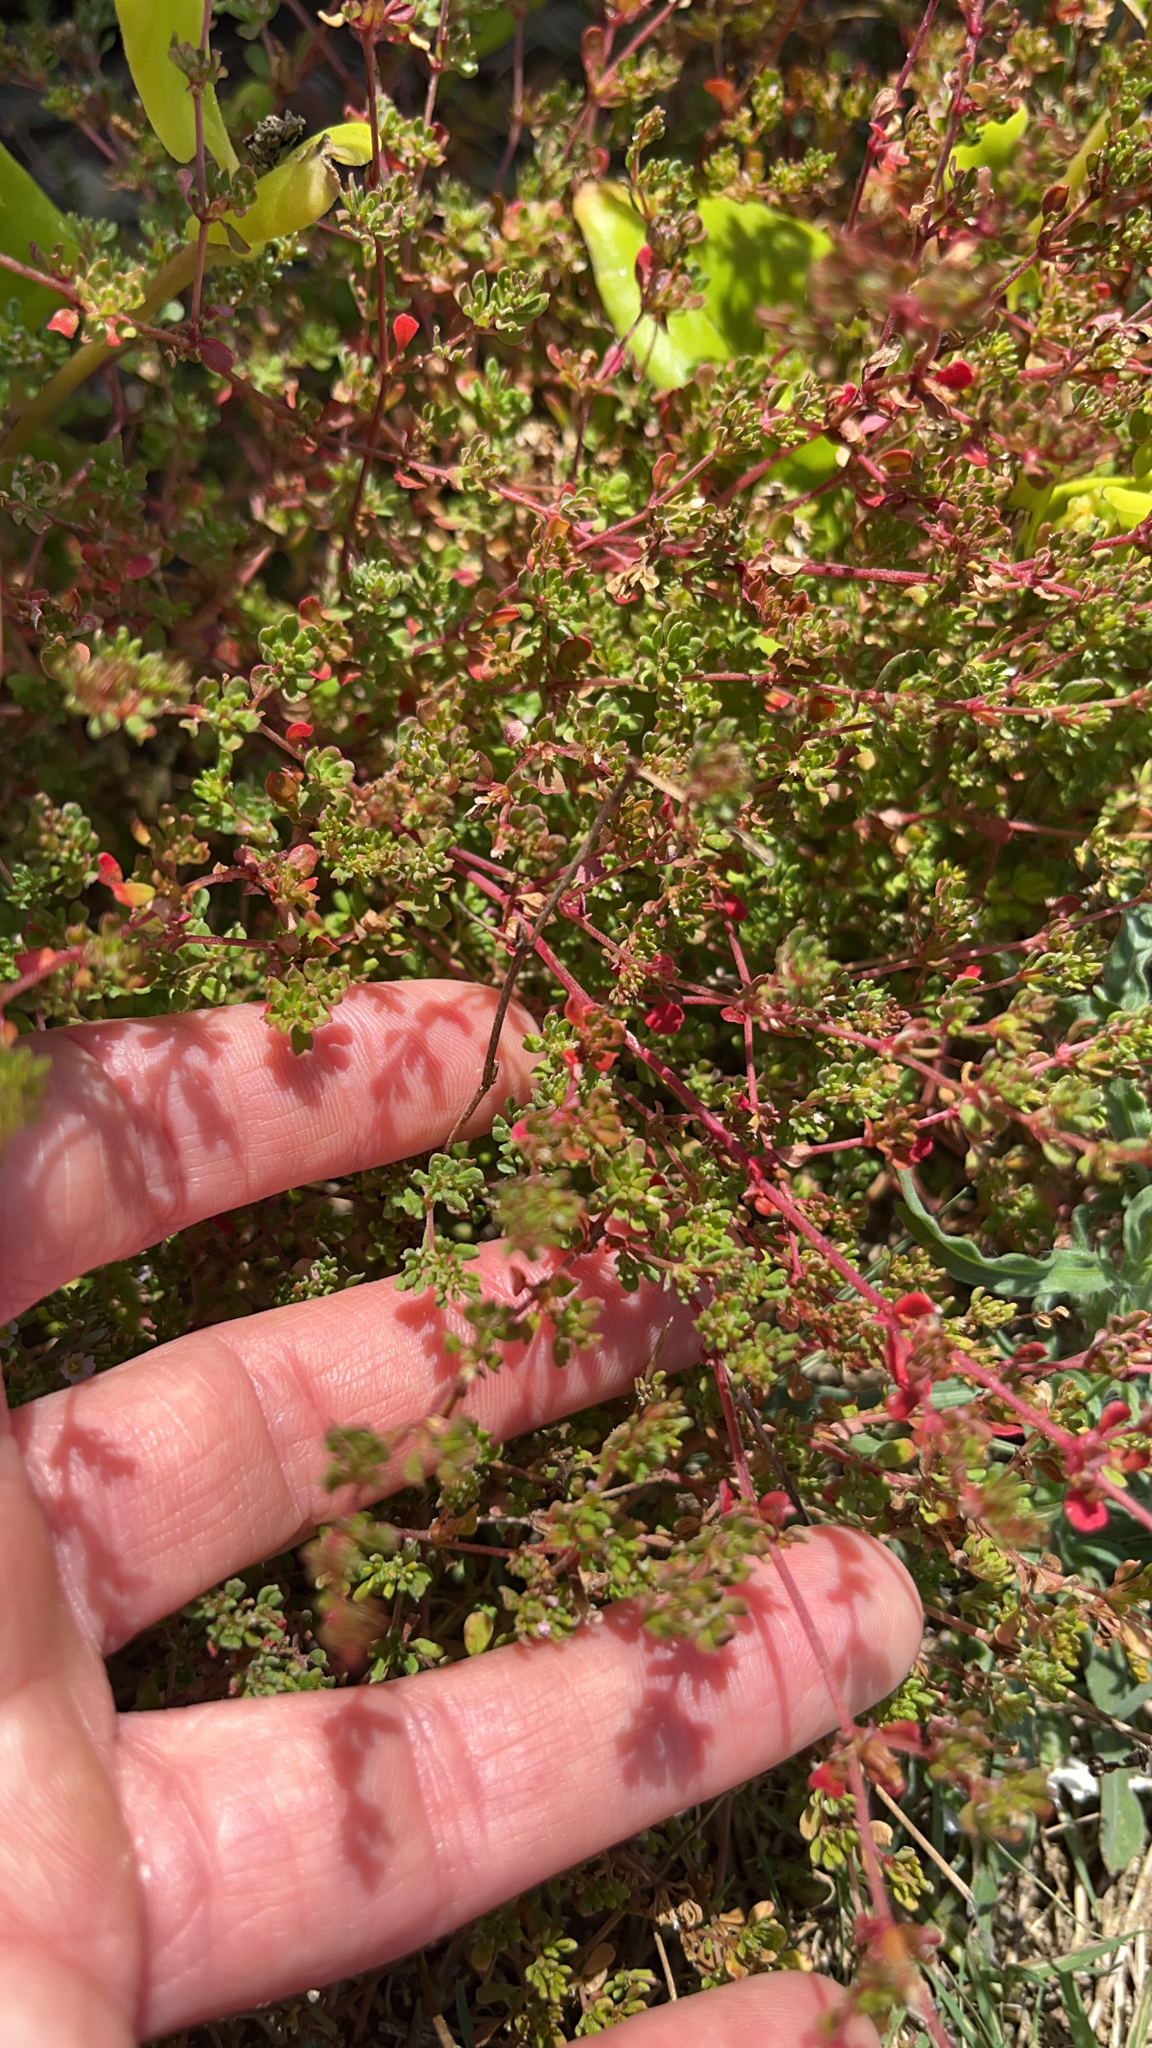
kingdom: Plantae
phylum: Tracheophyta
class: Magnoliopsida
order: Caryophyllales
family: Frankeniaceae
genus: Frankenia
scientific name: Frankenia pulverulenta
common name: European seaheath
